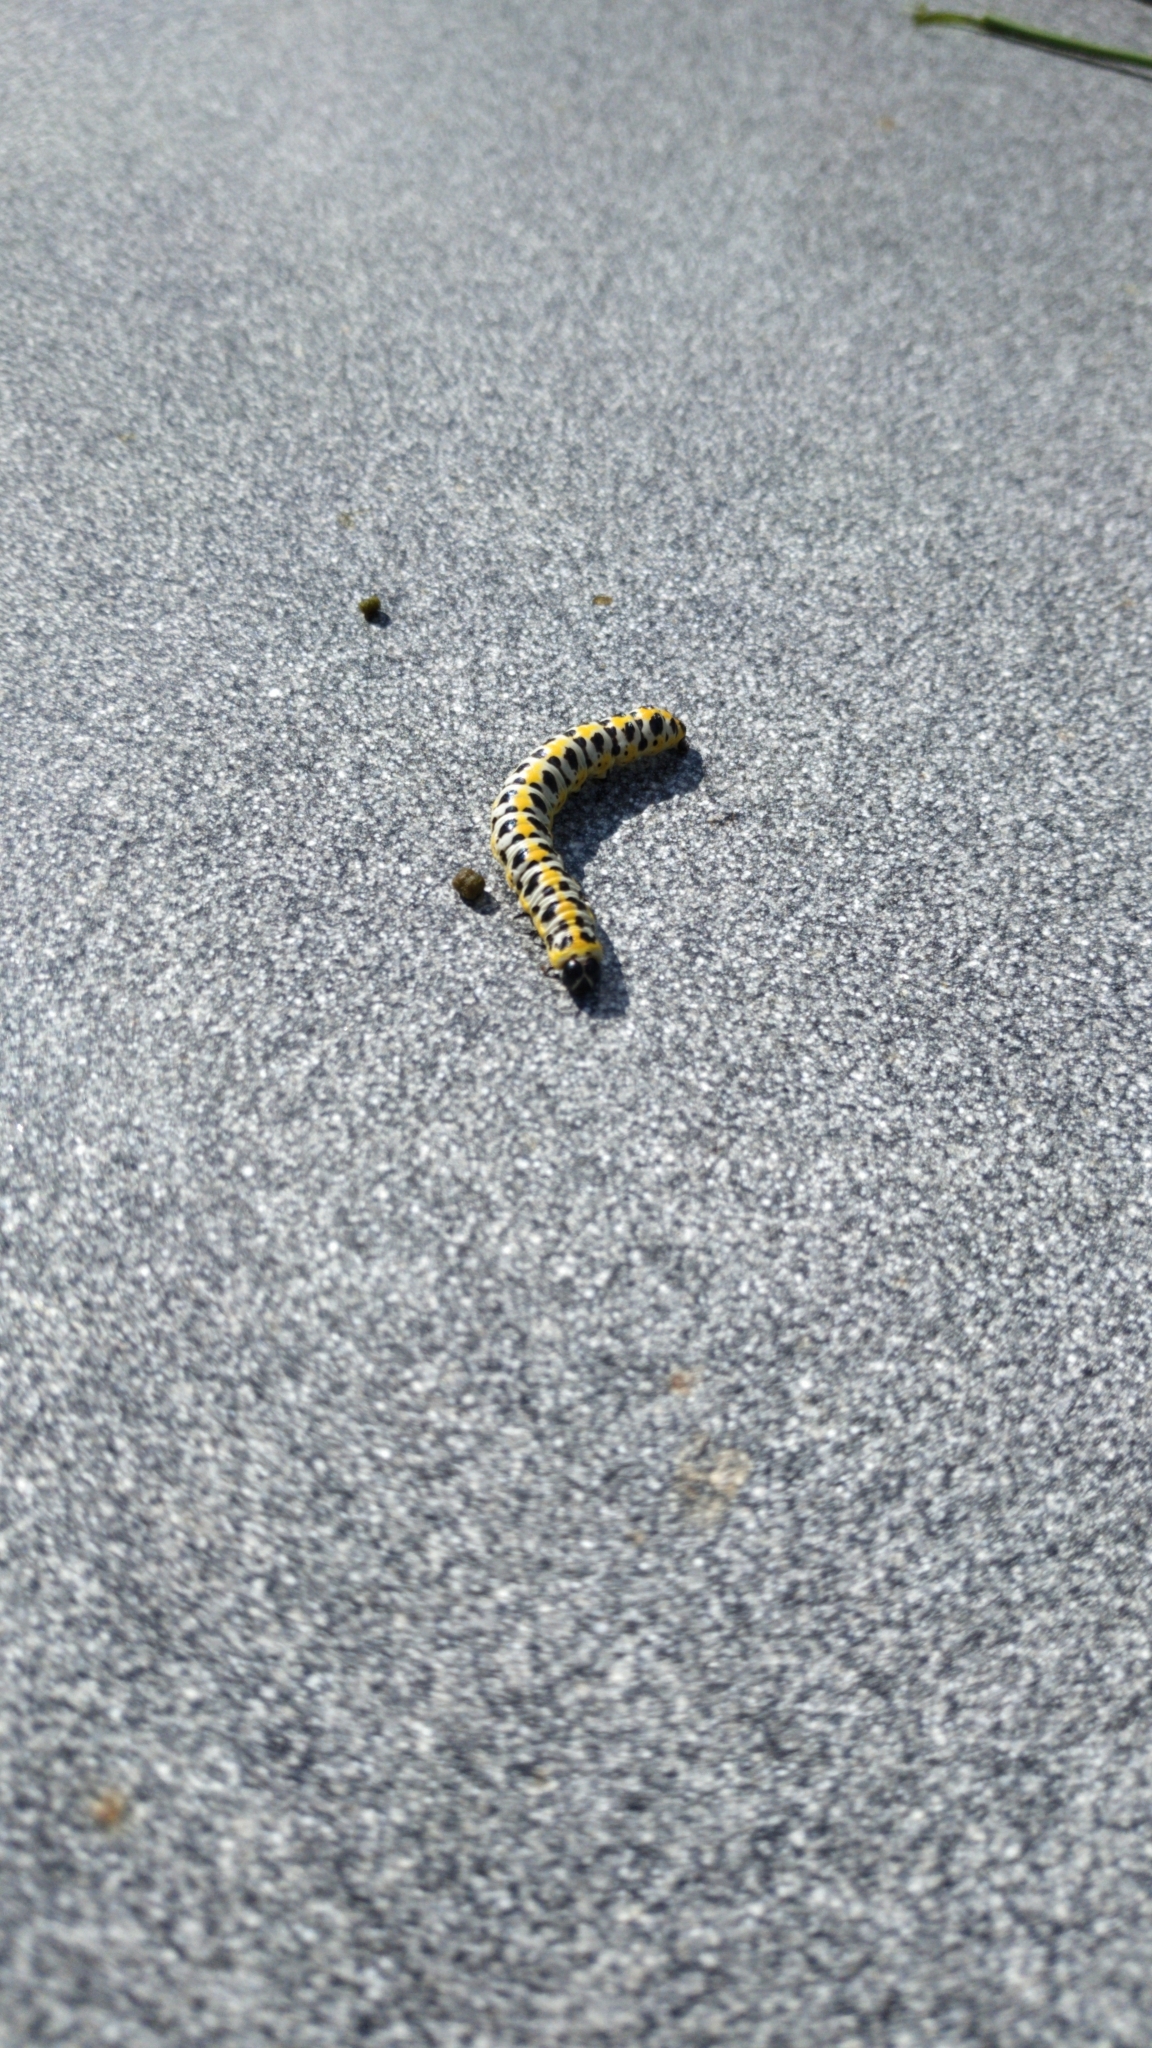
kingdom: Animalia
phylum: Arthropoda
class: Insecta
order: Lepidoptera
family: Noctuidae
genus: Cucullia
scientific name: Cucullia pustulata
